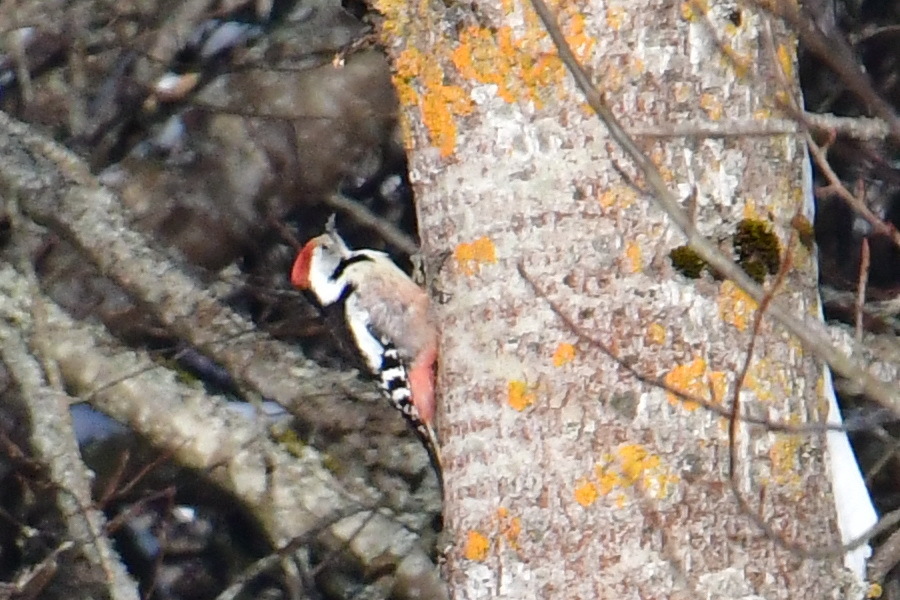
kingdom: Animalia
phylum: Chordata
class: Aves
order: Piciformes
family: Picidae
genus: Dendrocoptes
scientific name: Dendrocoptes medius
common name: Middle spotted woodpecker
